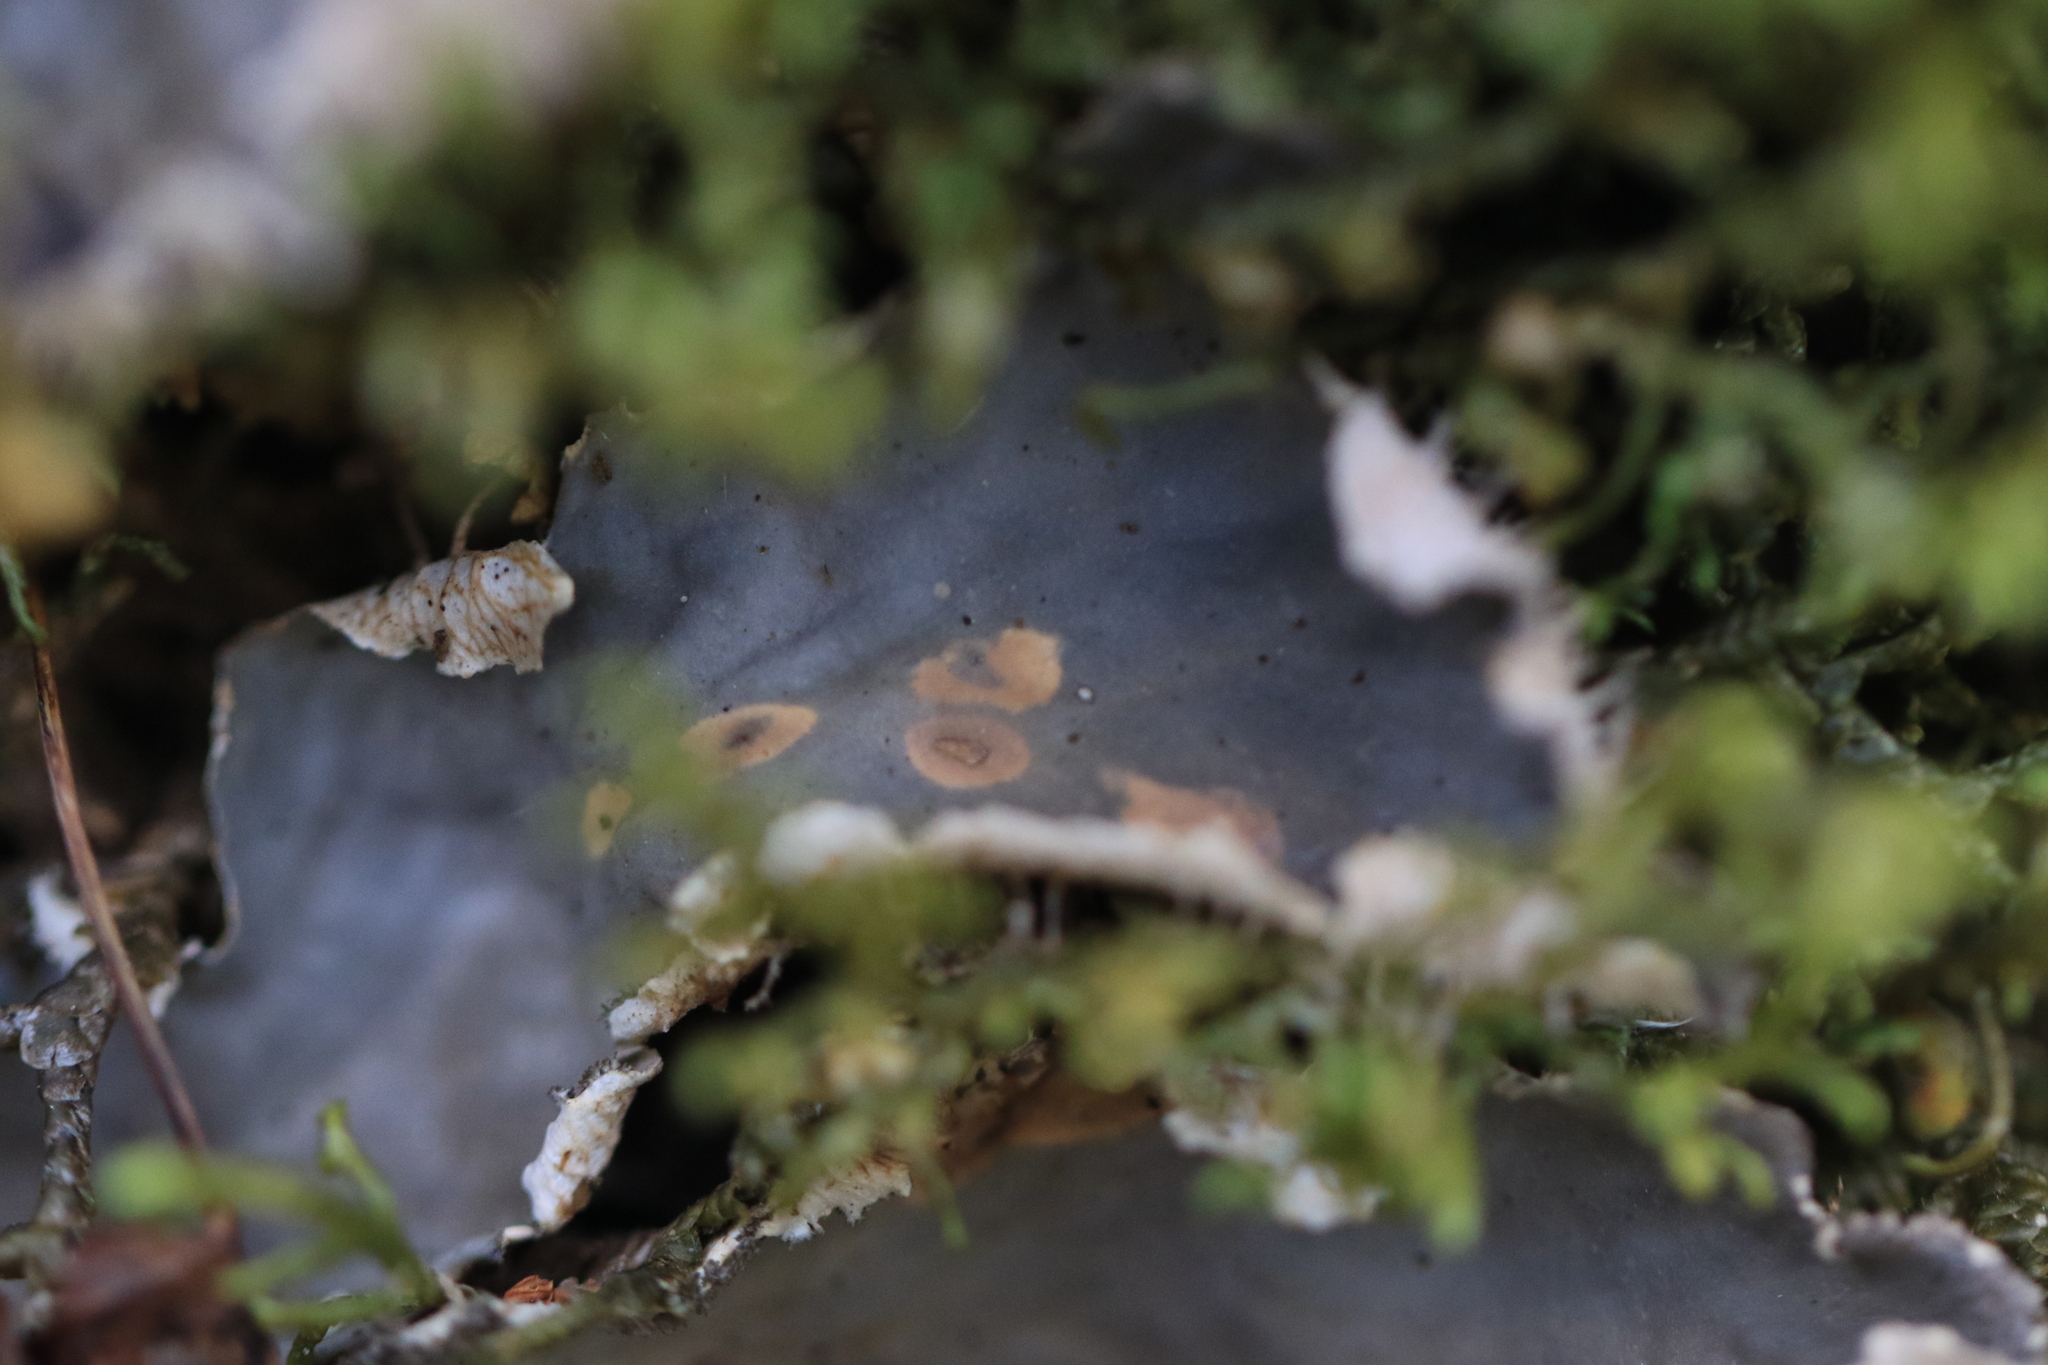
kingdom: Fungi
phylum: Ascomycota
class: Lecanoromycetes
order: Peltigerales
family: Peltigeraceae
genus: Peltigera
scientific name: Peltigera praetextata
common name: Scaly dog-lichen
